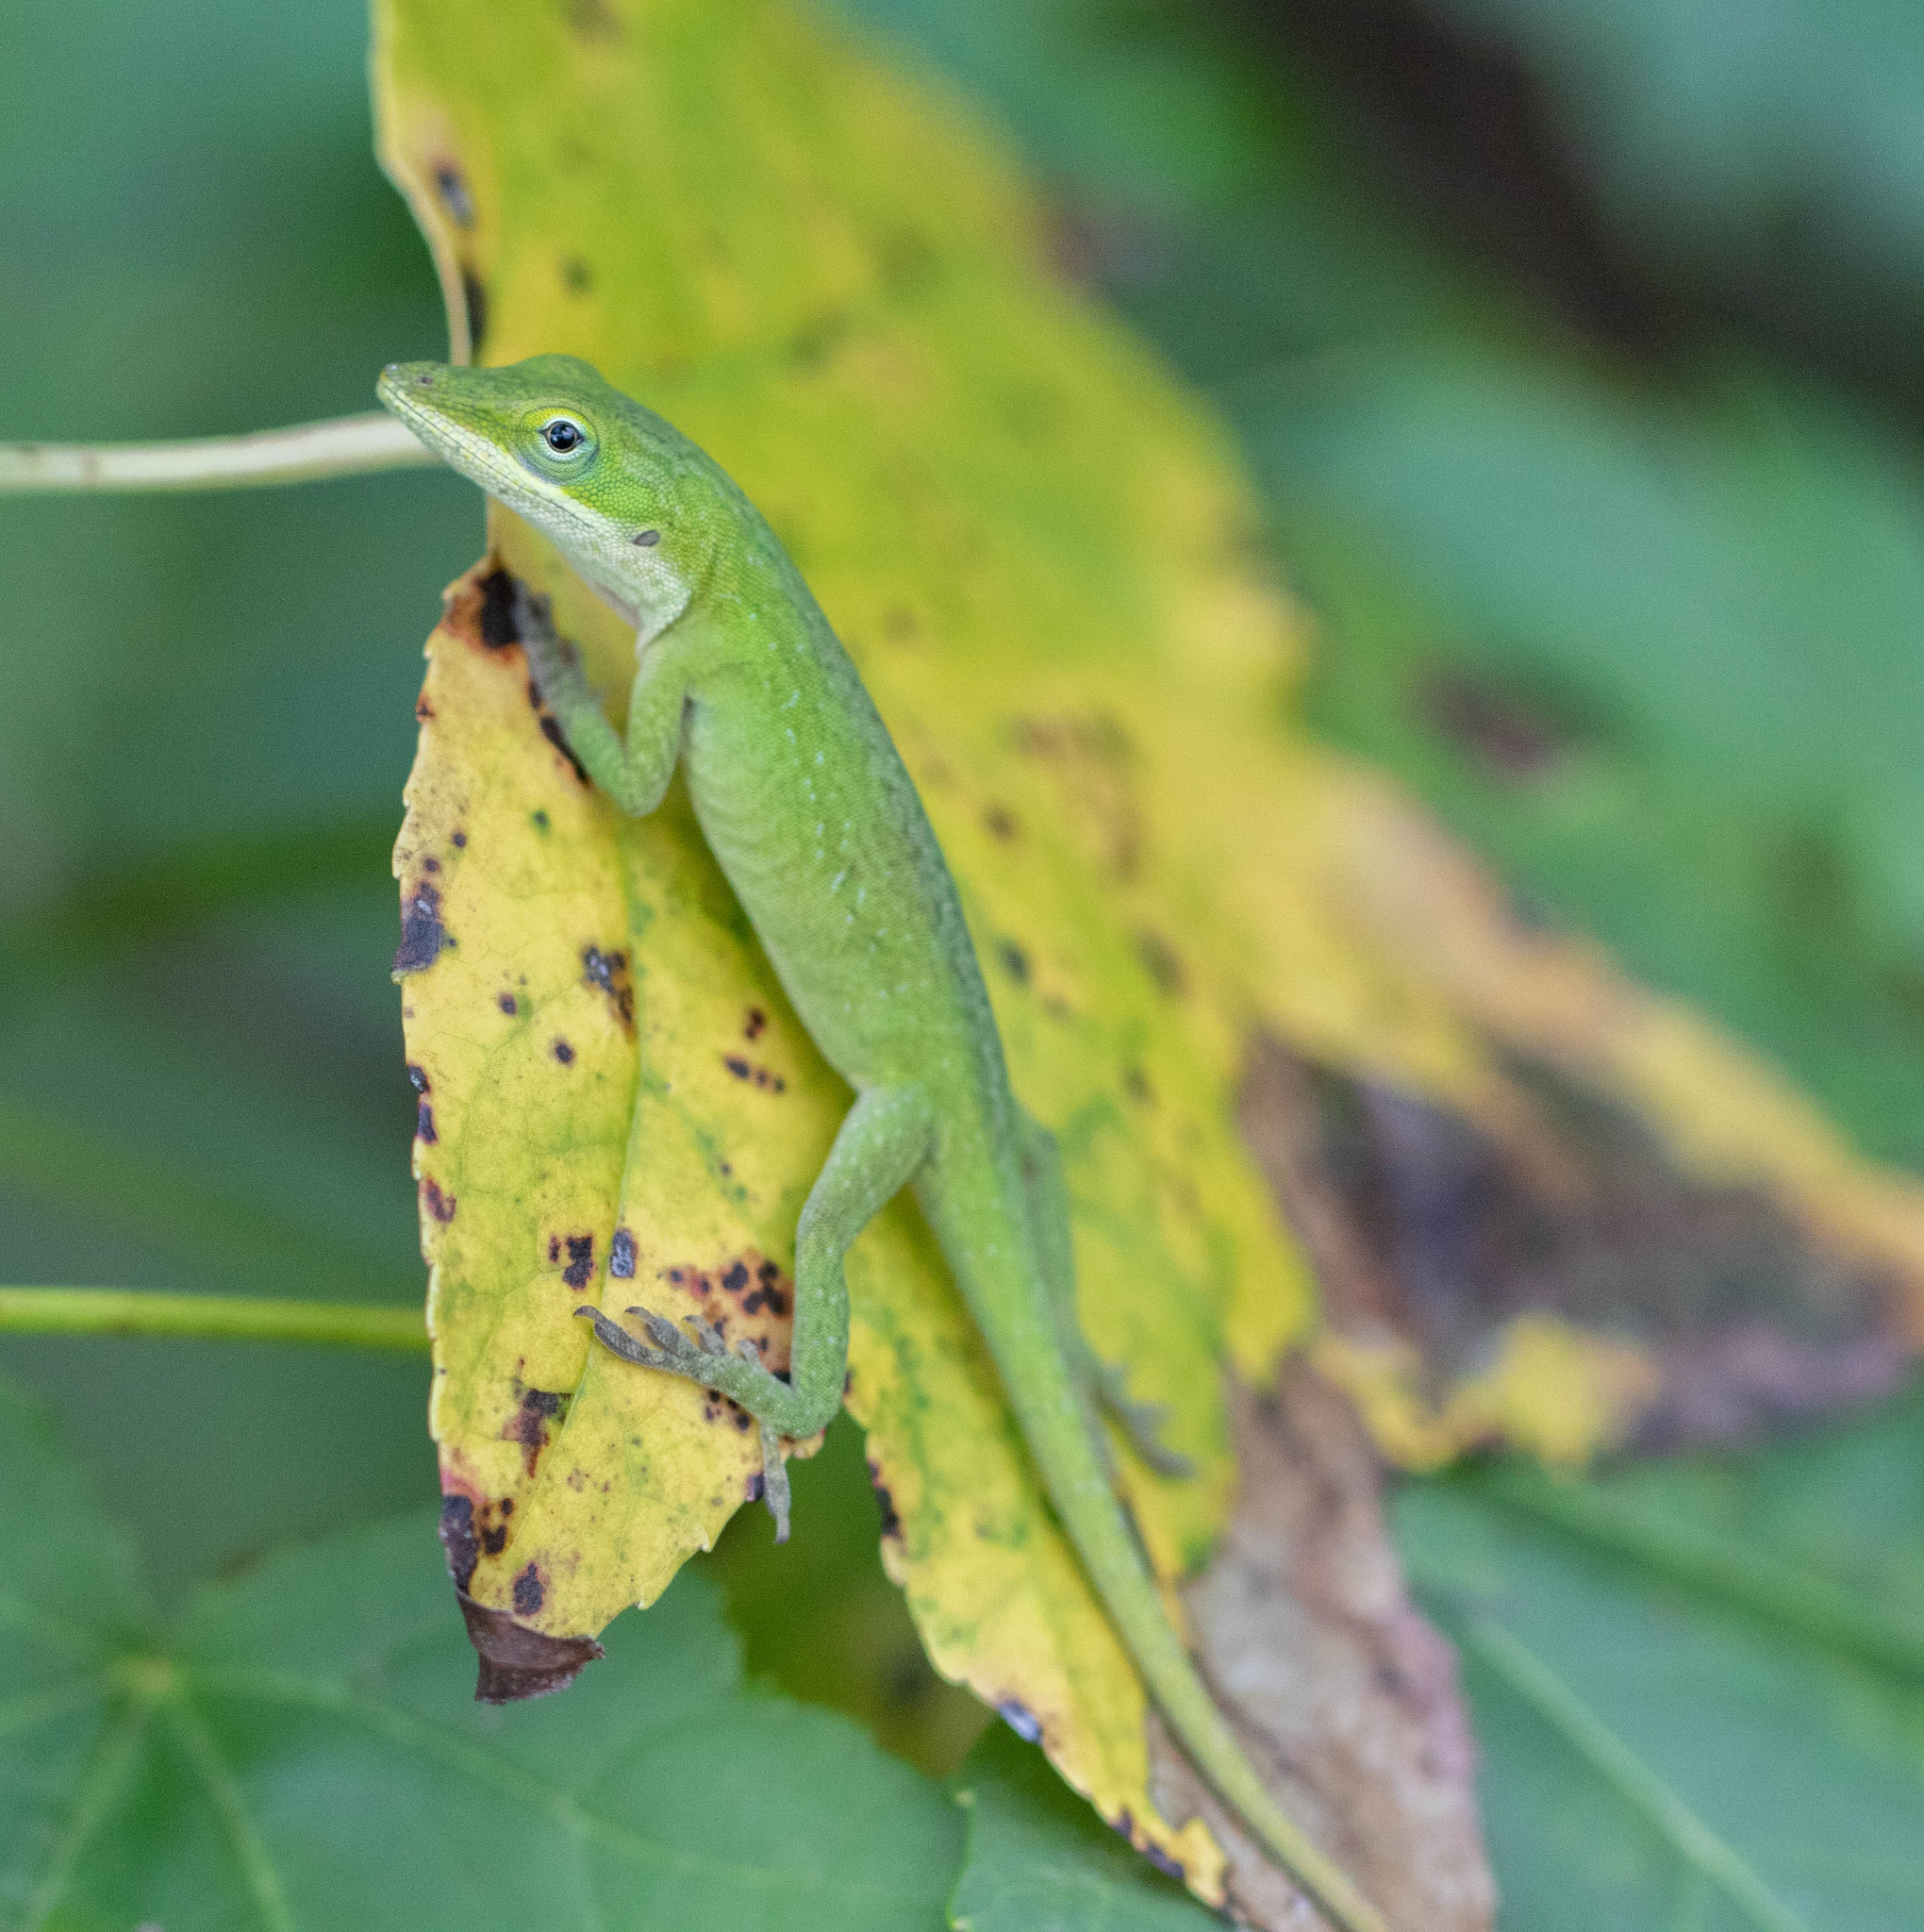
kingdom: Animalia
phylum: Chordata
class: Squamata
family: Dactyloidae
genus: Anolis
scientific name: Anolis carolinensis
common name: Green anole
